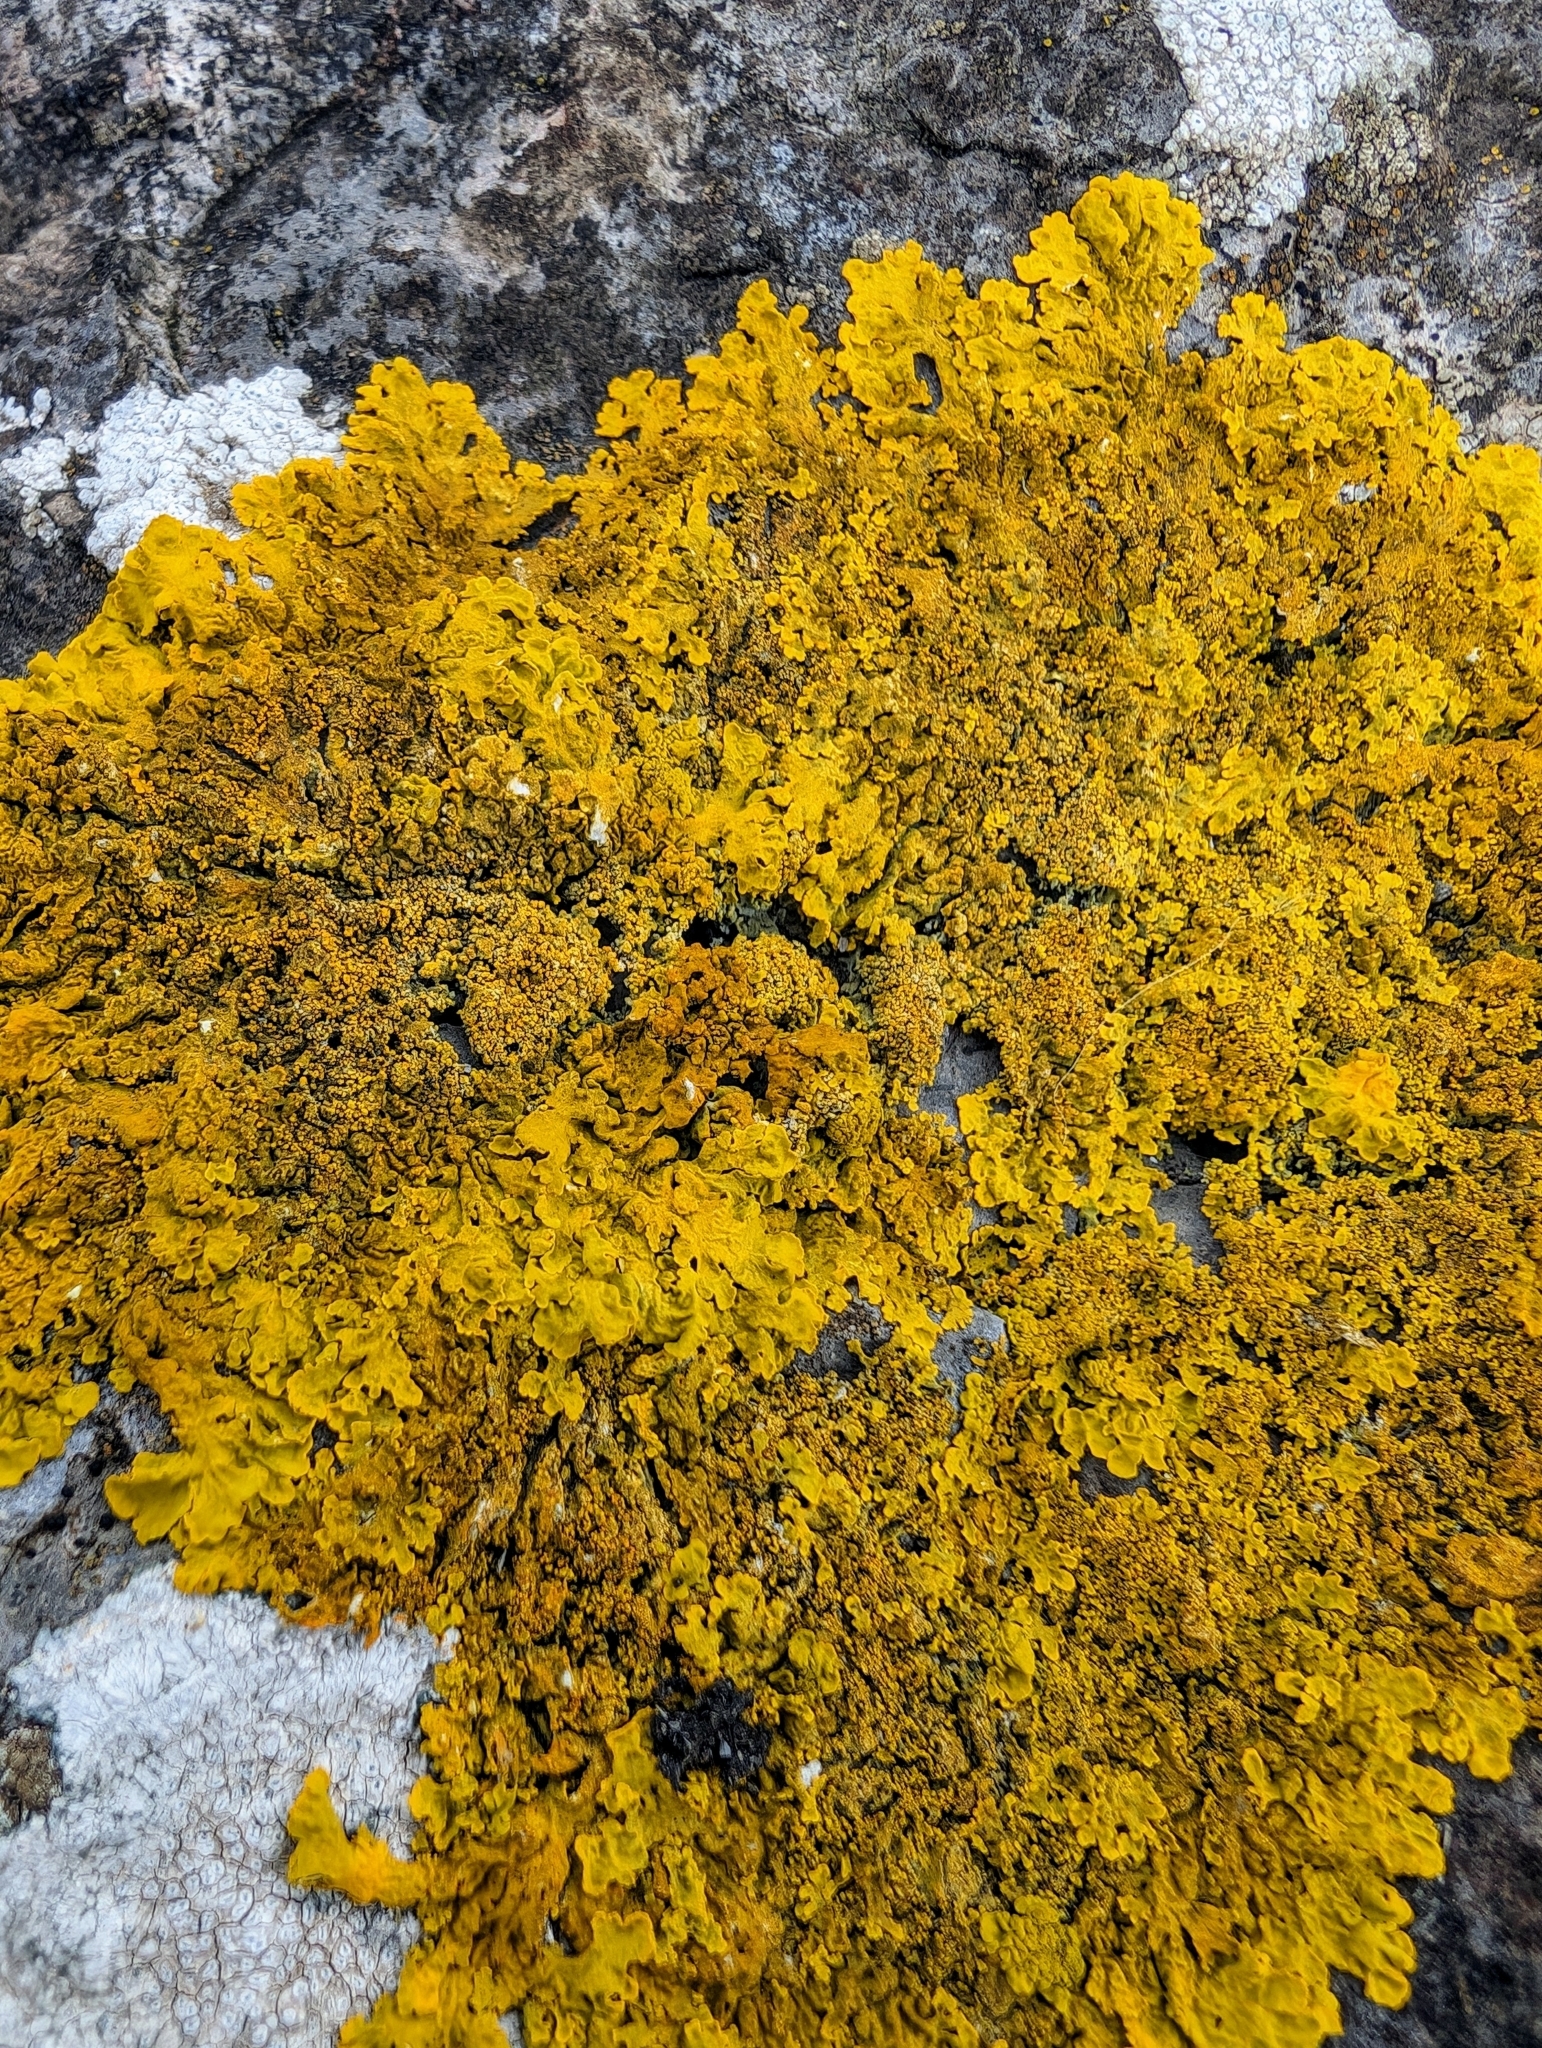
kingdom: Fungi
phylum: Ascomycota
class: Lecanoromycetes
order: Teloschistales
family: Teloschistaceae
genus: Xanthoria
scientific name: Xanthoria calcicola
